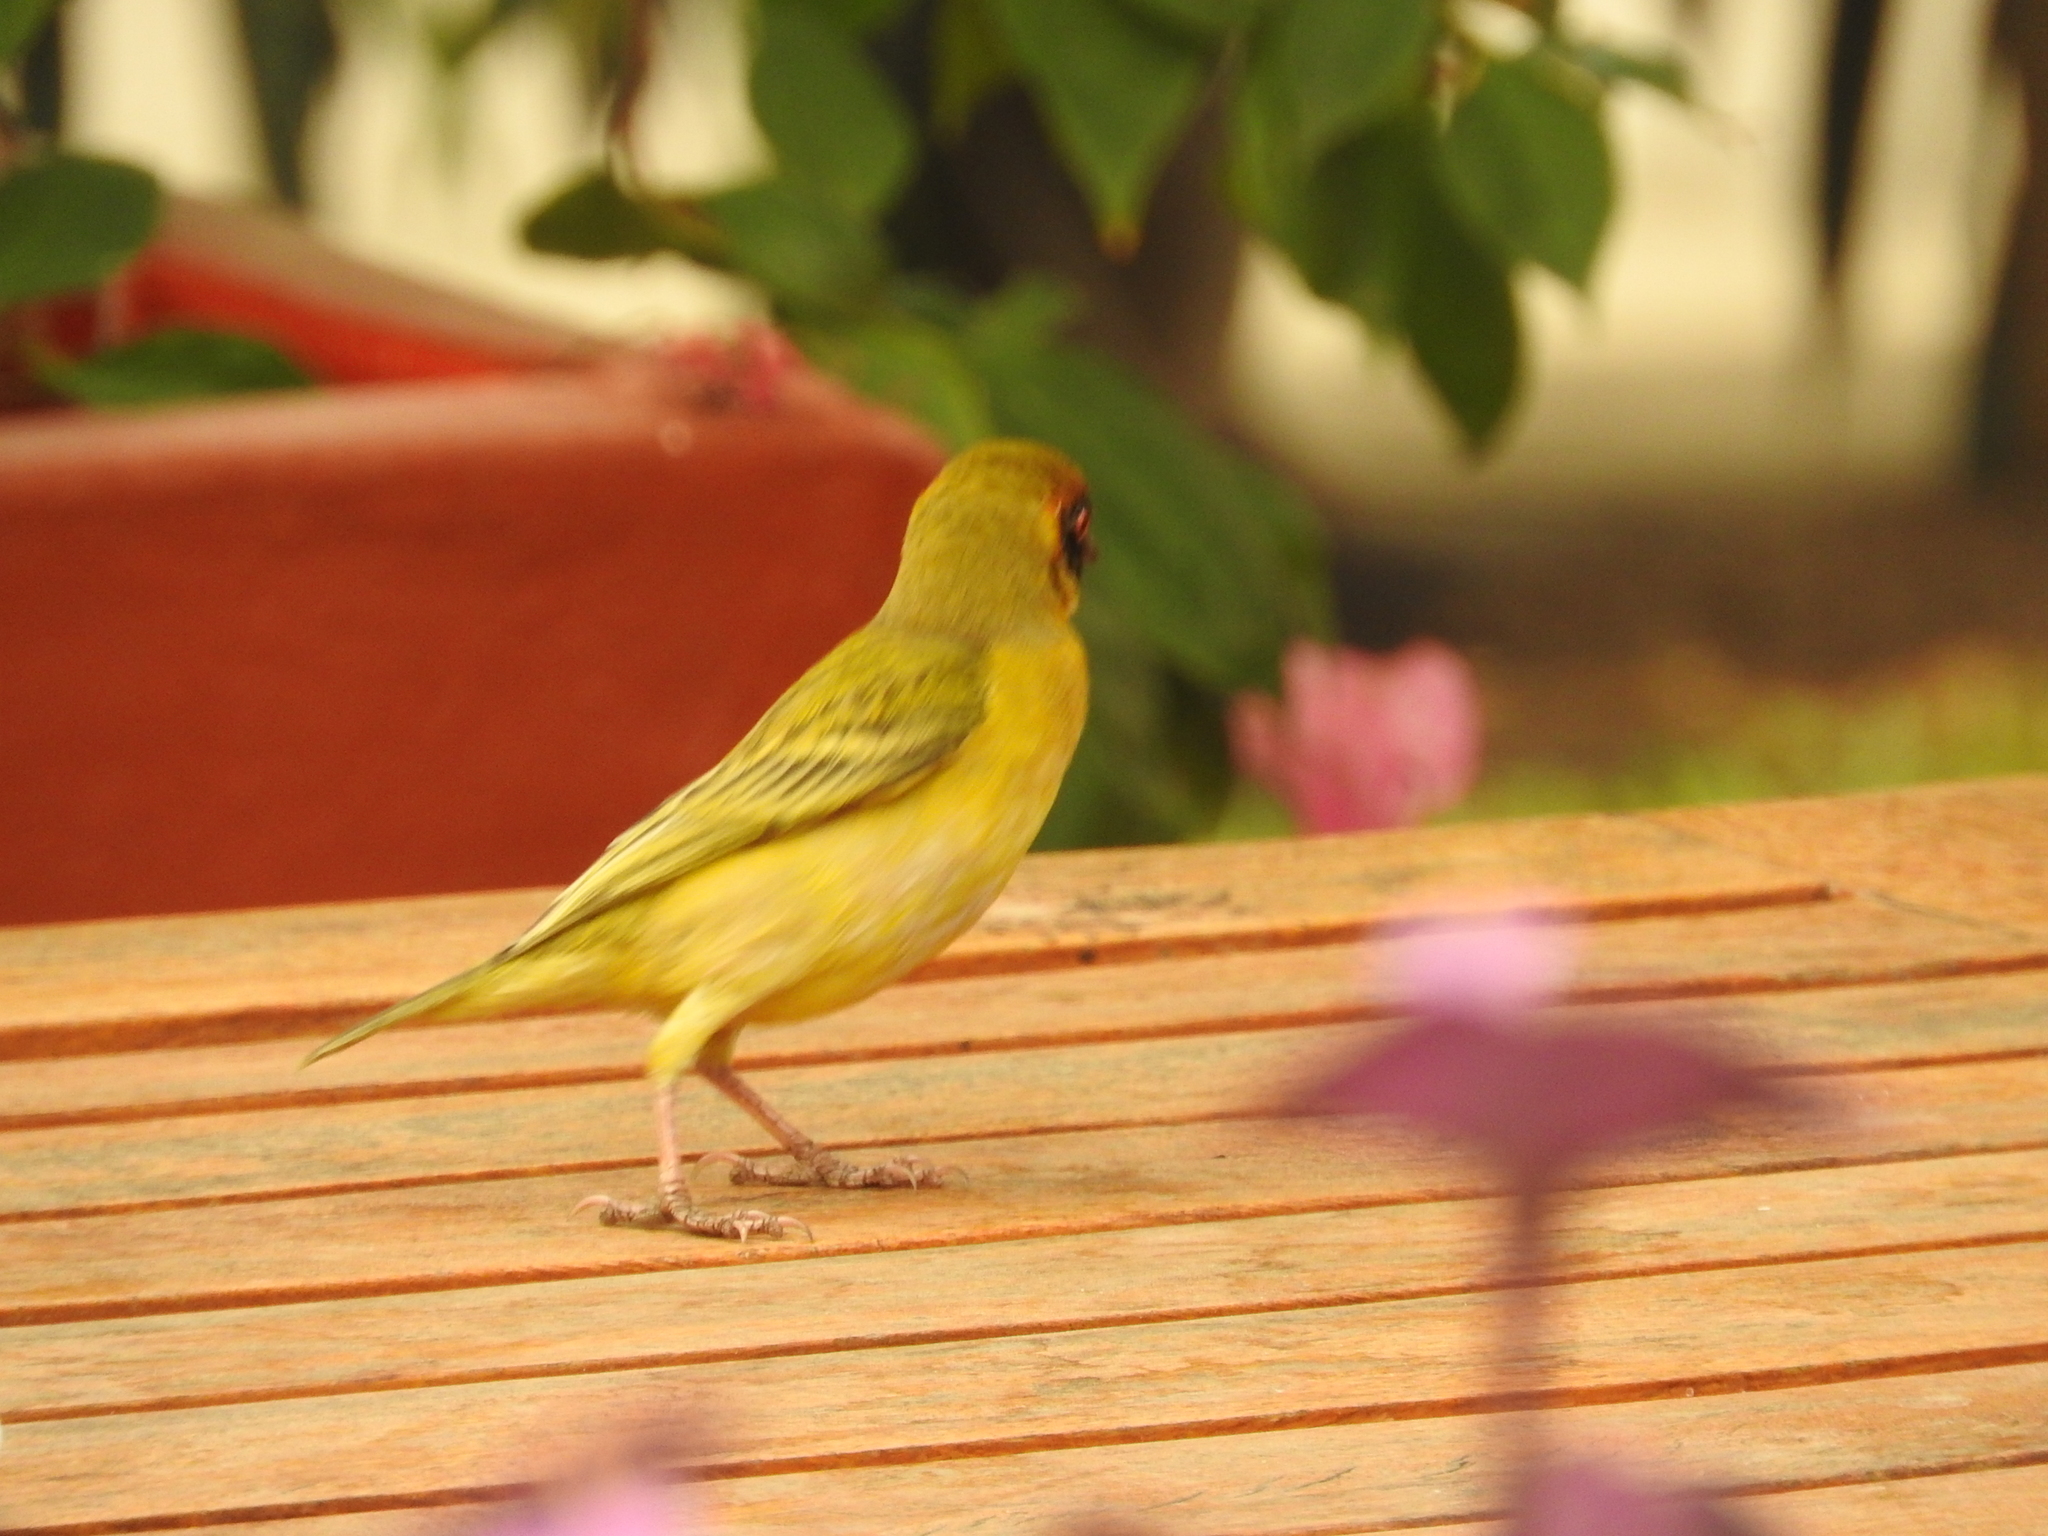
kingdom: Animalia
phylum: Chordata
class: Aves
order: Passeriformes
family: Ploceidae
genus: Ploceus
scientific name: Ploceus vitellinus
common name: Vitelline masked weaver
